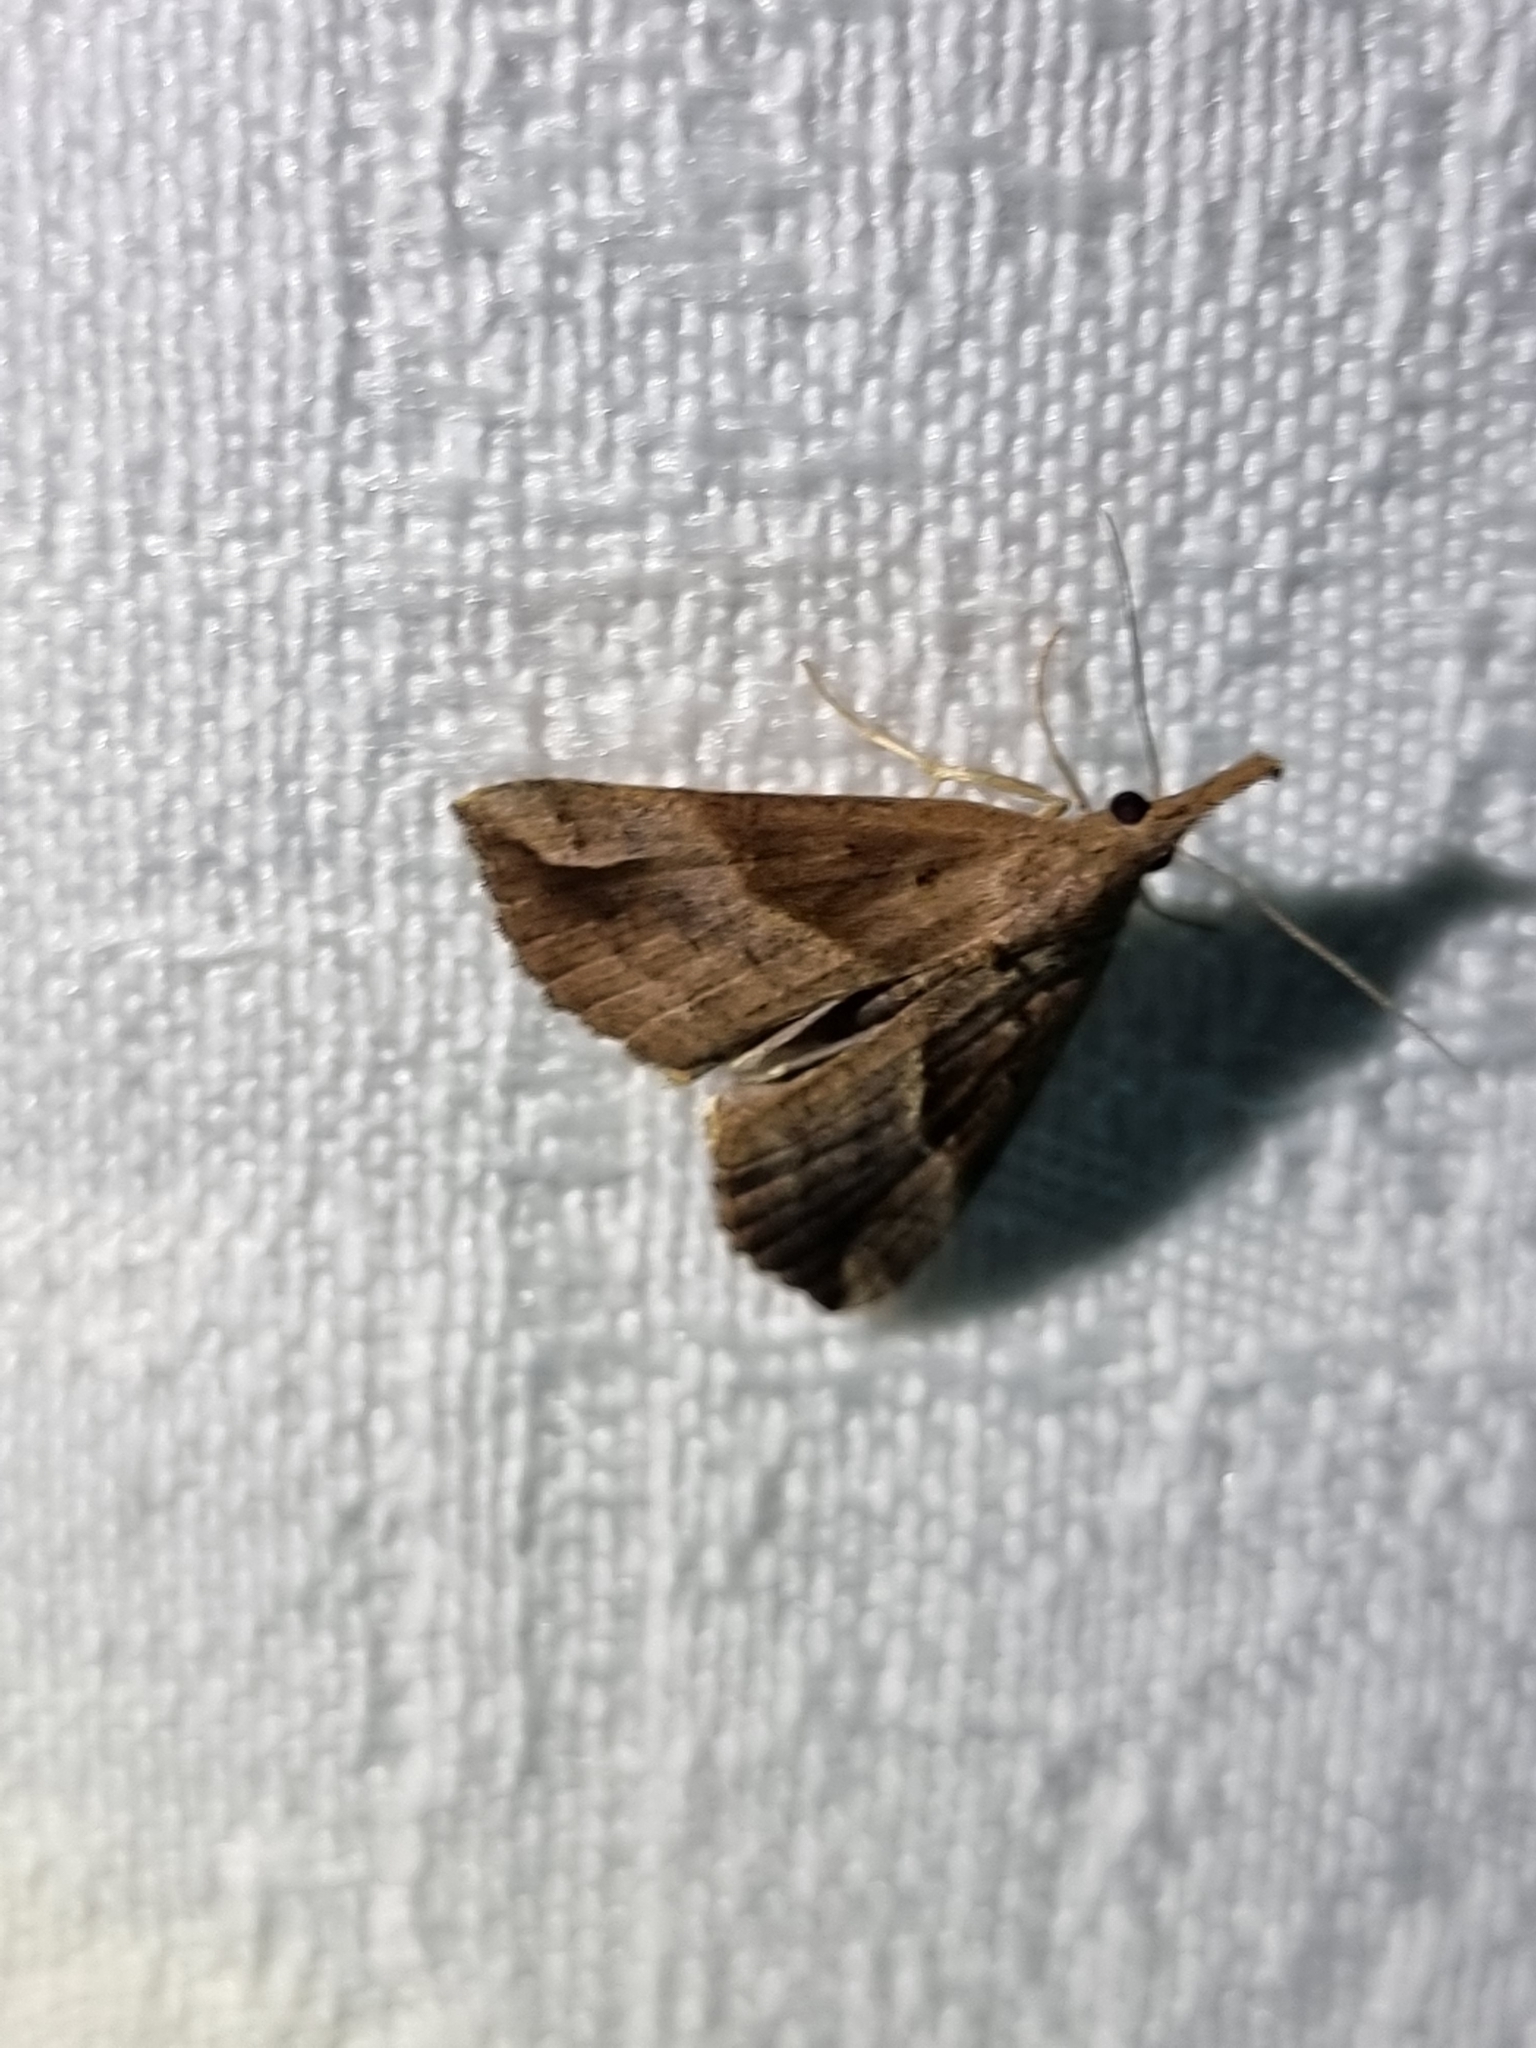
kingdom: Animalia
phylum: Arthropoda
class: Insecta
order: Lepidoptera
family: Erebidae
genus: Hypena
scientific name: Hypena pelodes
